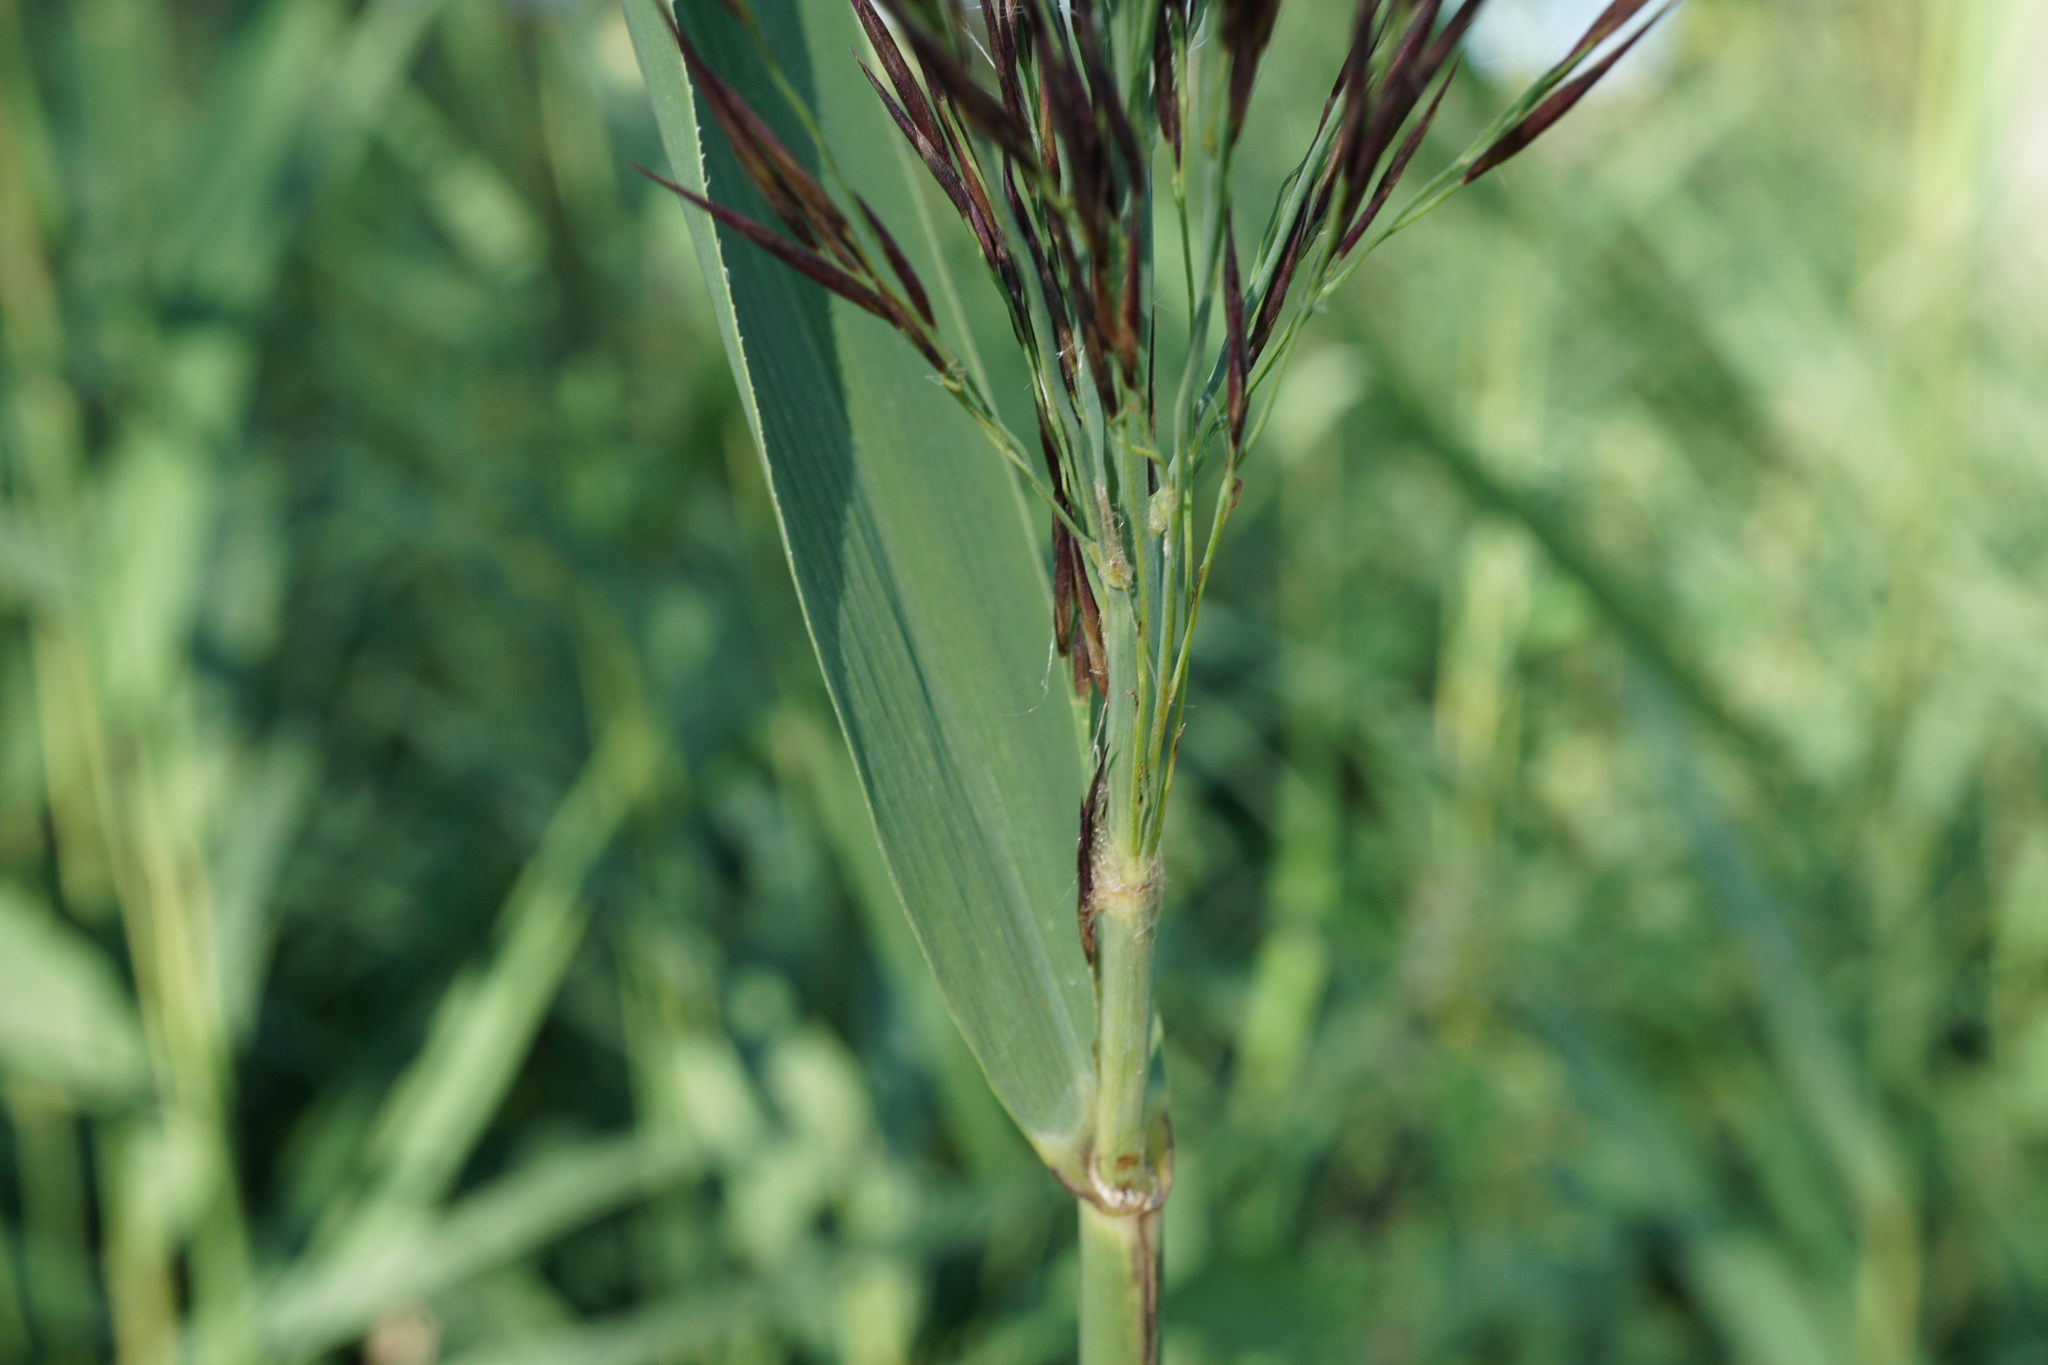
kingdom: Plantae
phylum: Tracheophyta
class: Liliopsida
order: Poales
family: Poaceae
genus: Phragmites
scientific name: Phragmites australis
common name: Common reed
